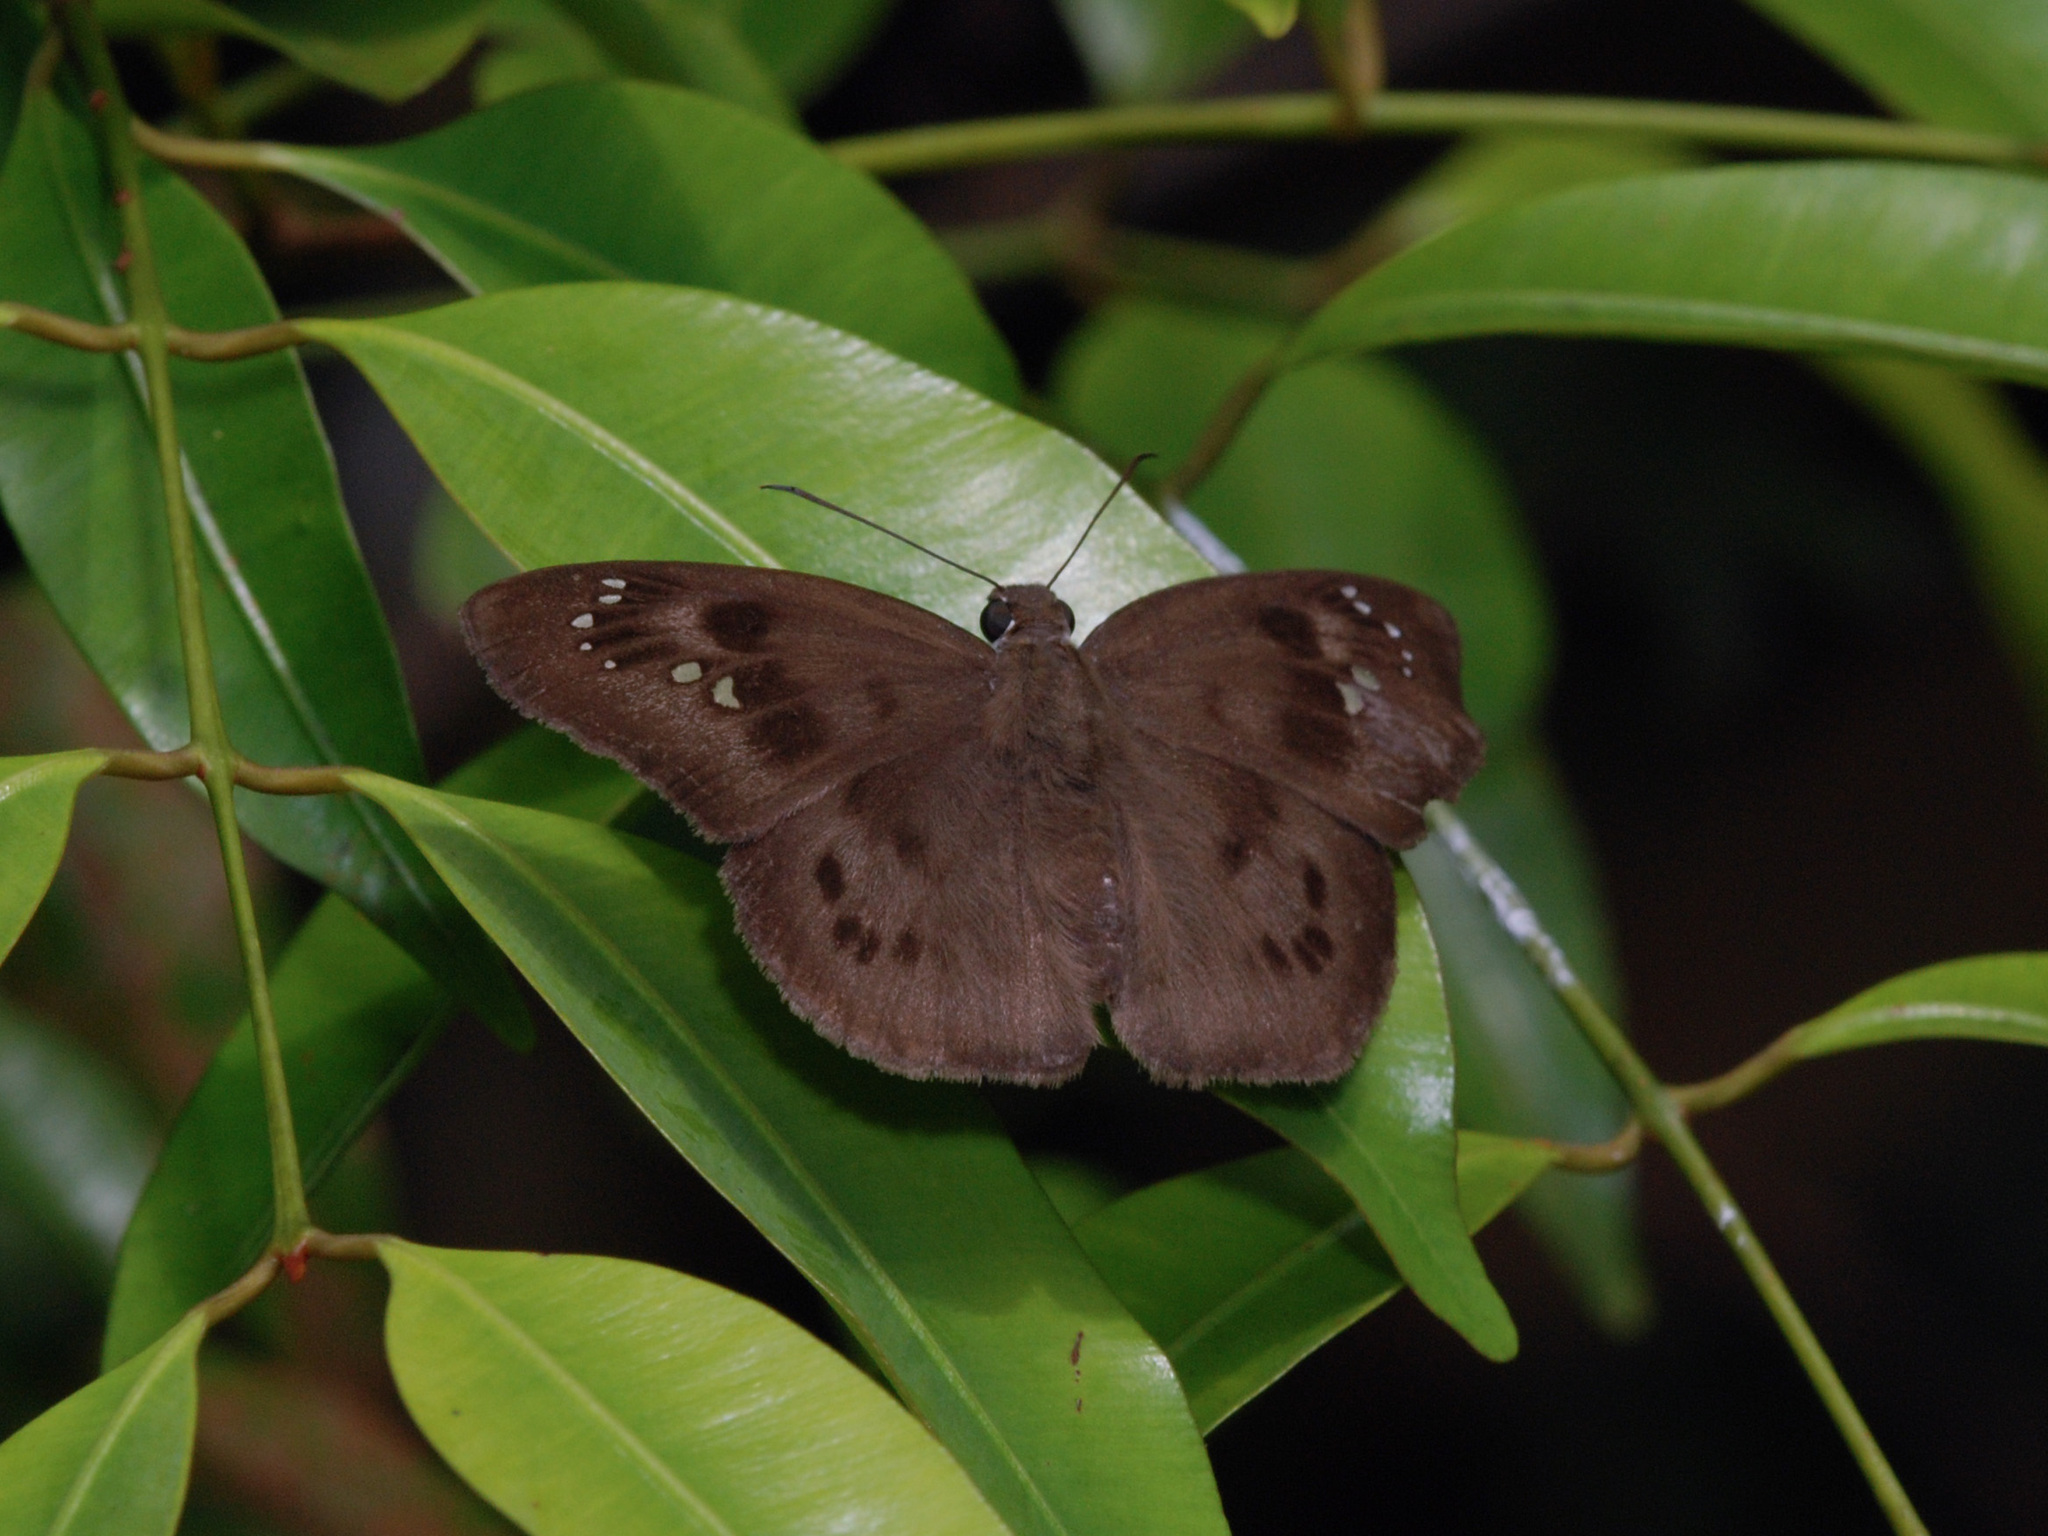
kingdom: Animalia
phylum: Arthropoda
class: Insecta
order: Lepidoptera
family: Hesperiidae
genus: Tagiades
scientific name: Tagiades japetus
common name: Pied flat
